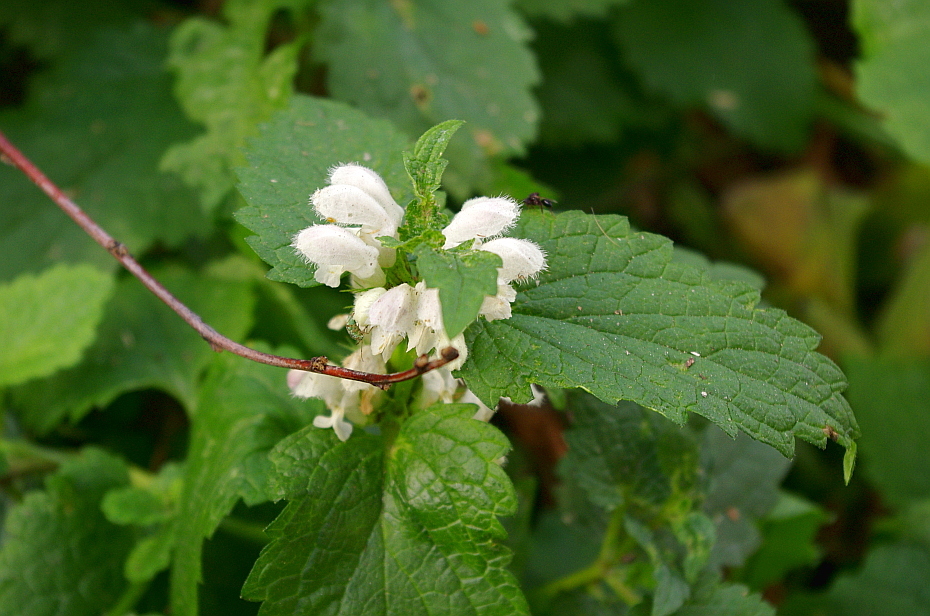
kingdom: Plantae
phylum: Tracheophyta
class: Magnoliopsida
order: Lamiales
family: Lamiaceae
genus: Lamium
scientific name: Lamium album
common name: White dead-nettle
